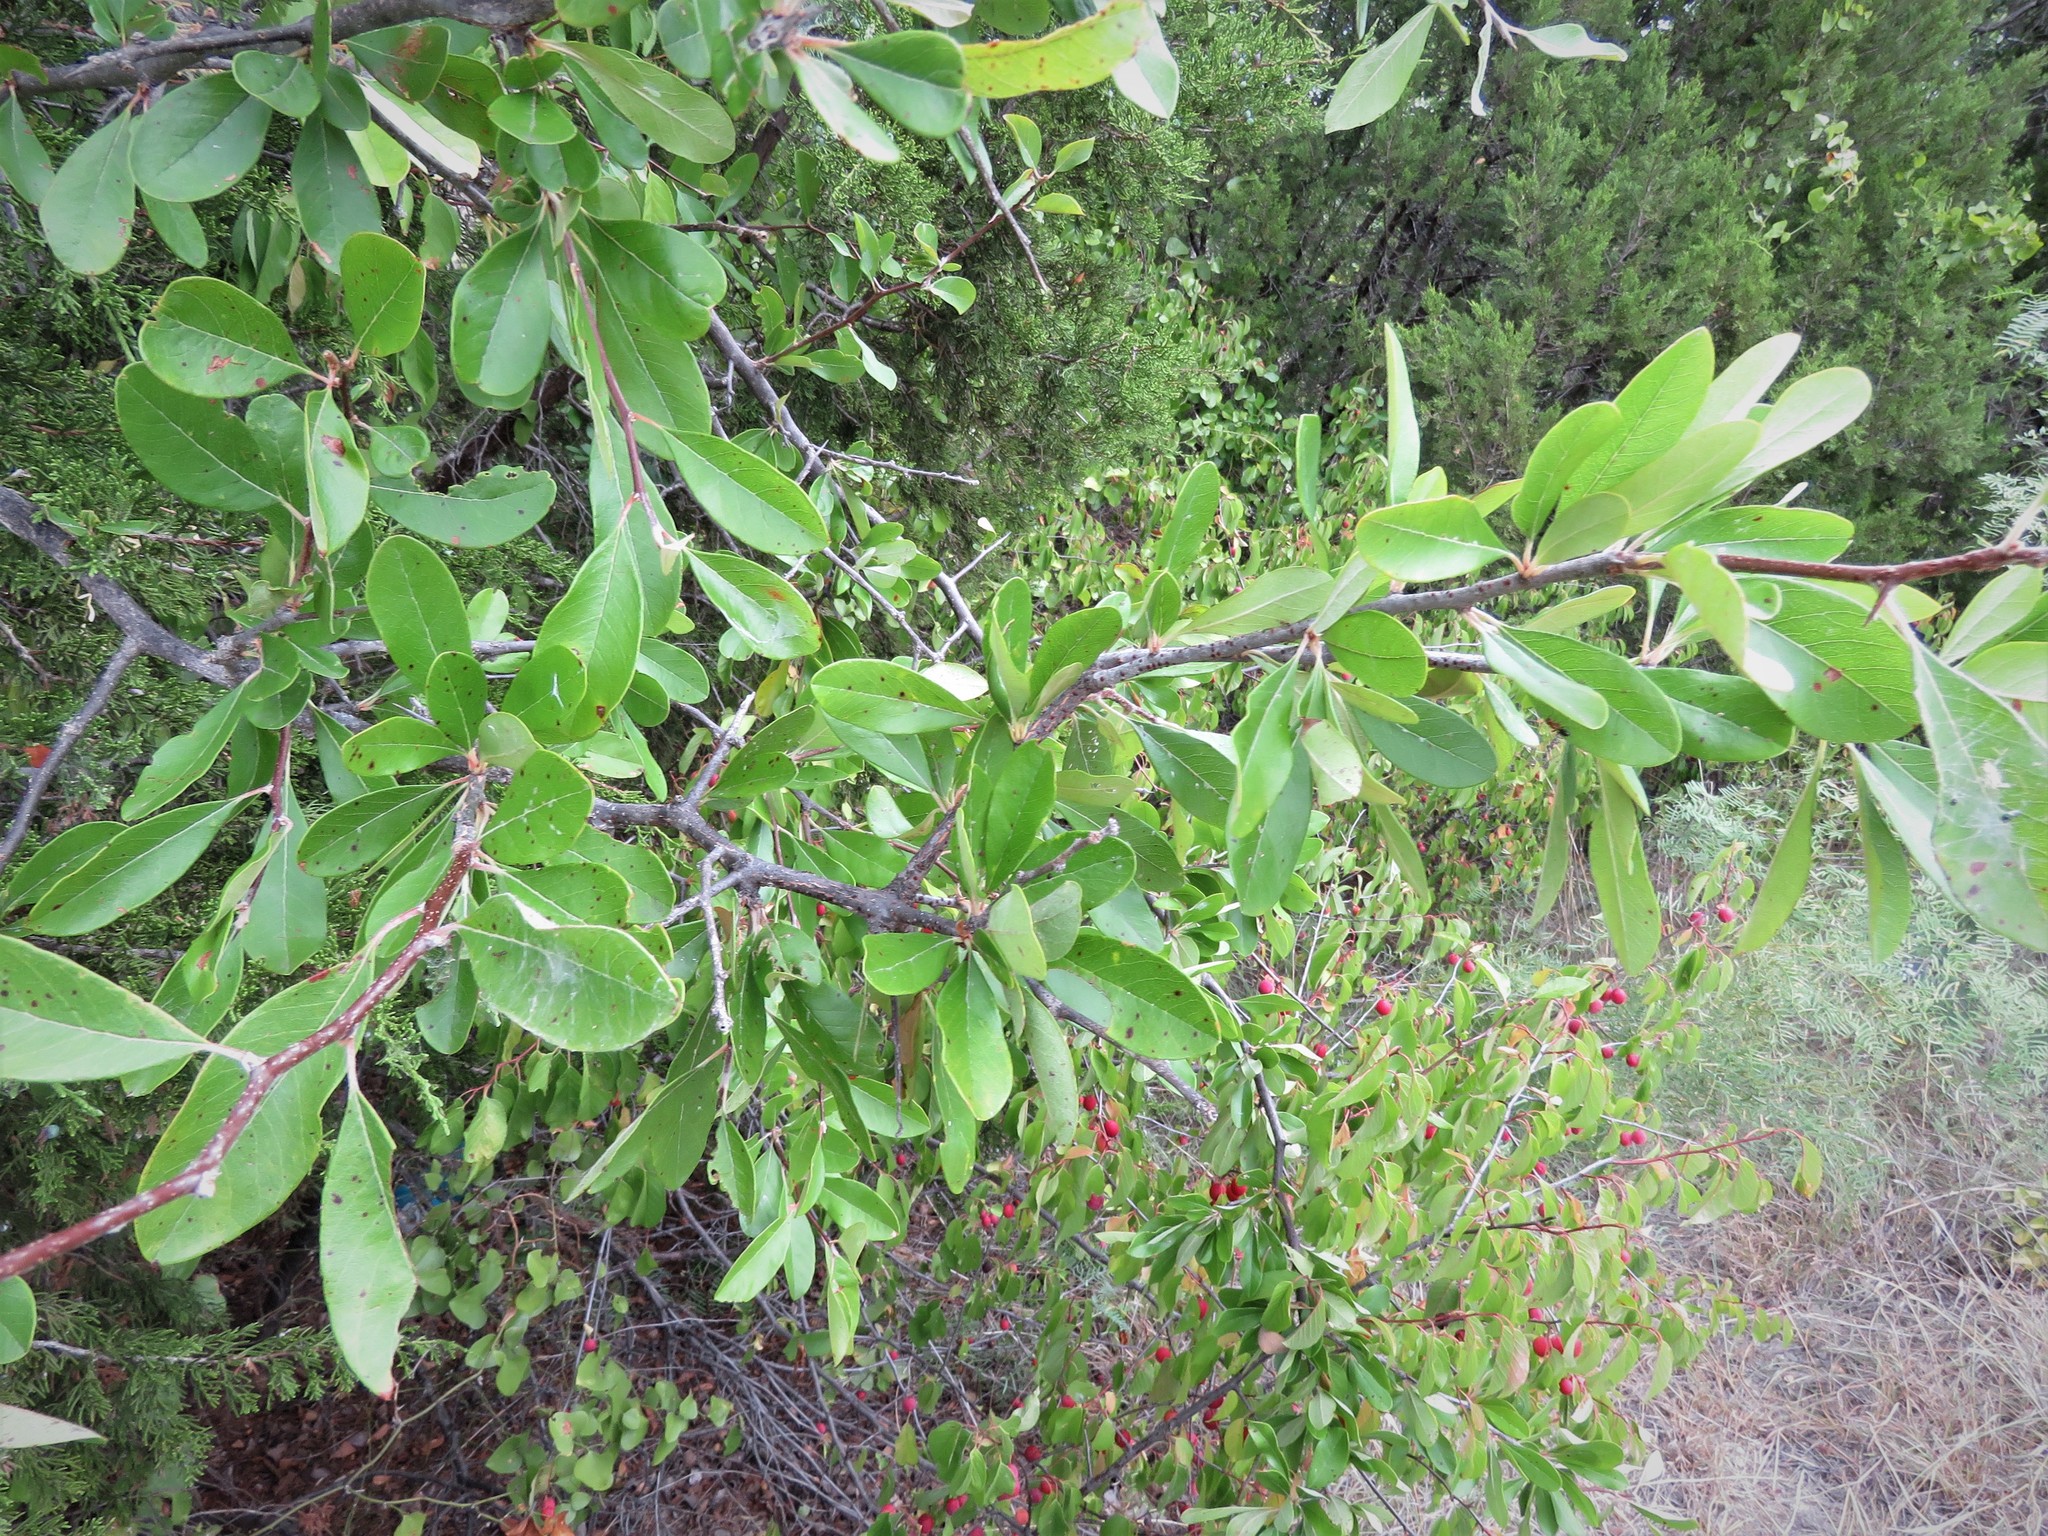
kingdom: Plantae
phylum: Tracheophyta
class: Magnoliopsida
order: Ericales
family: Sapotaceae
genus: Sideroxylon
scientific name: Sideroxylon lanuginosum
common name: Chittamwood
